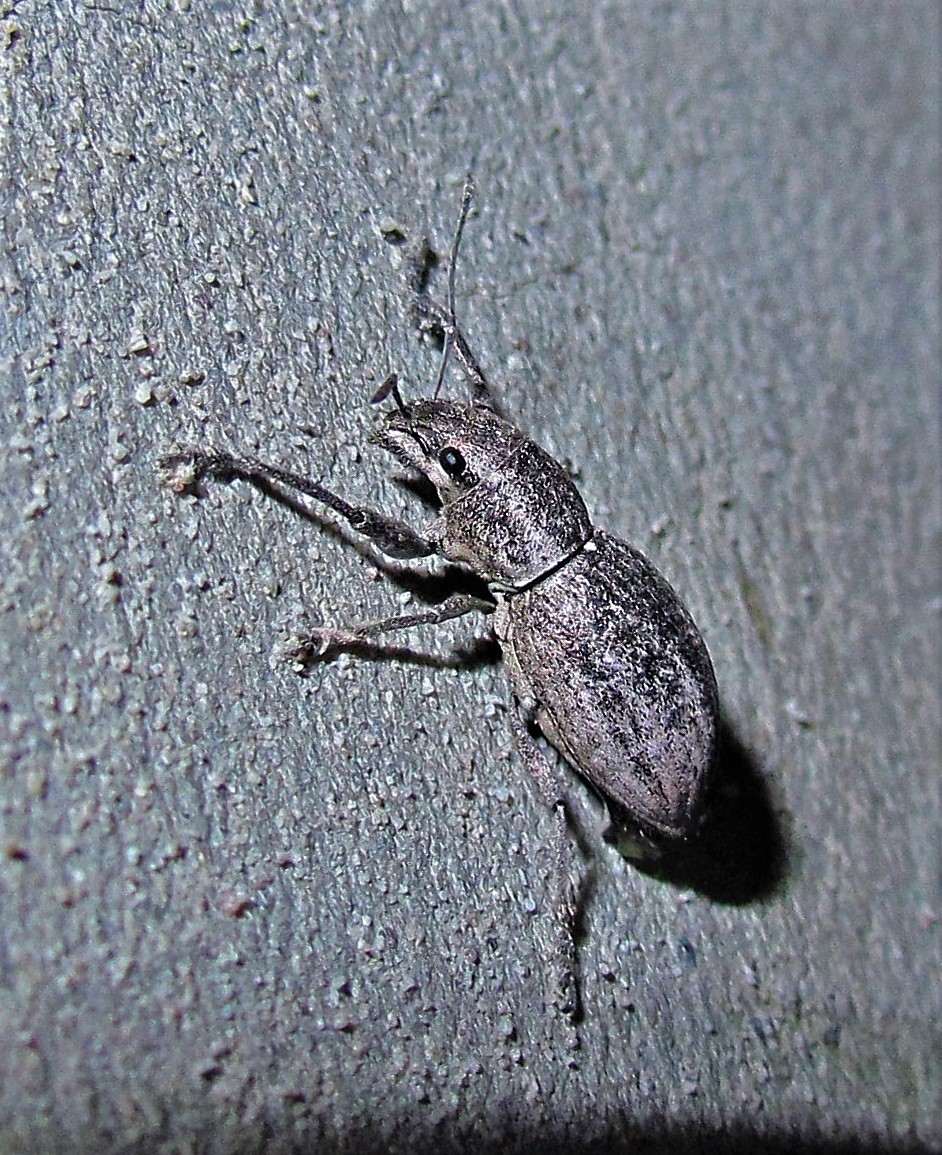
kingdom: Animalia
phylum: Arthropoda
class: Insecta
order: Coleoptera
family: Curculionidae
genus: Naupactus
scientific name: Naupactus versatilis
